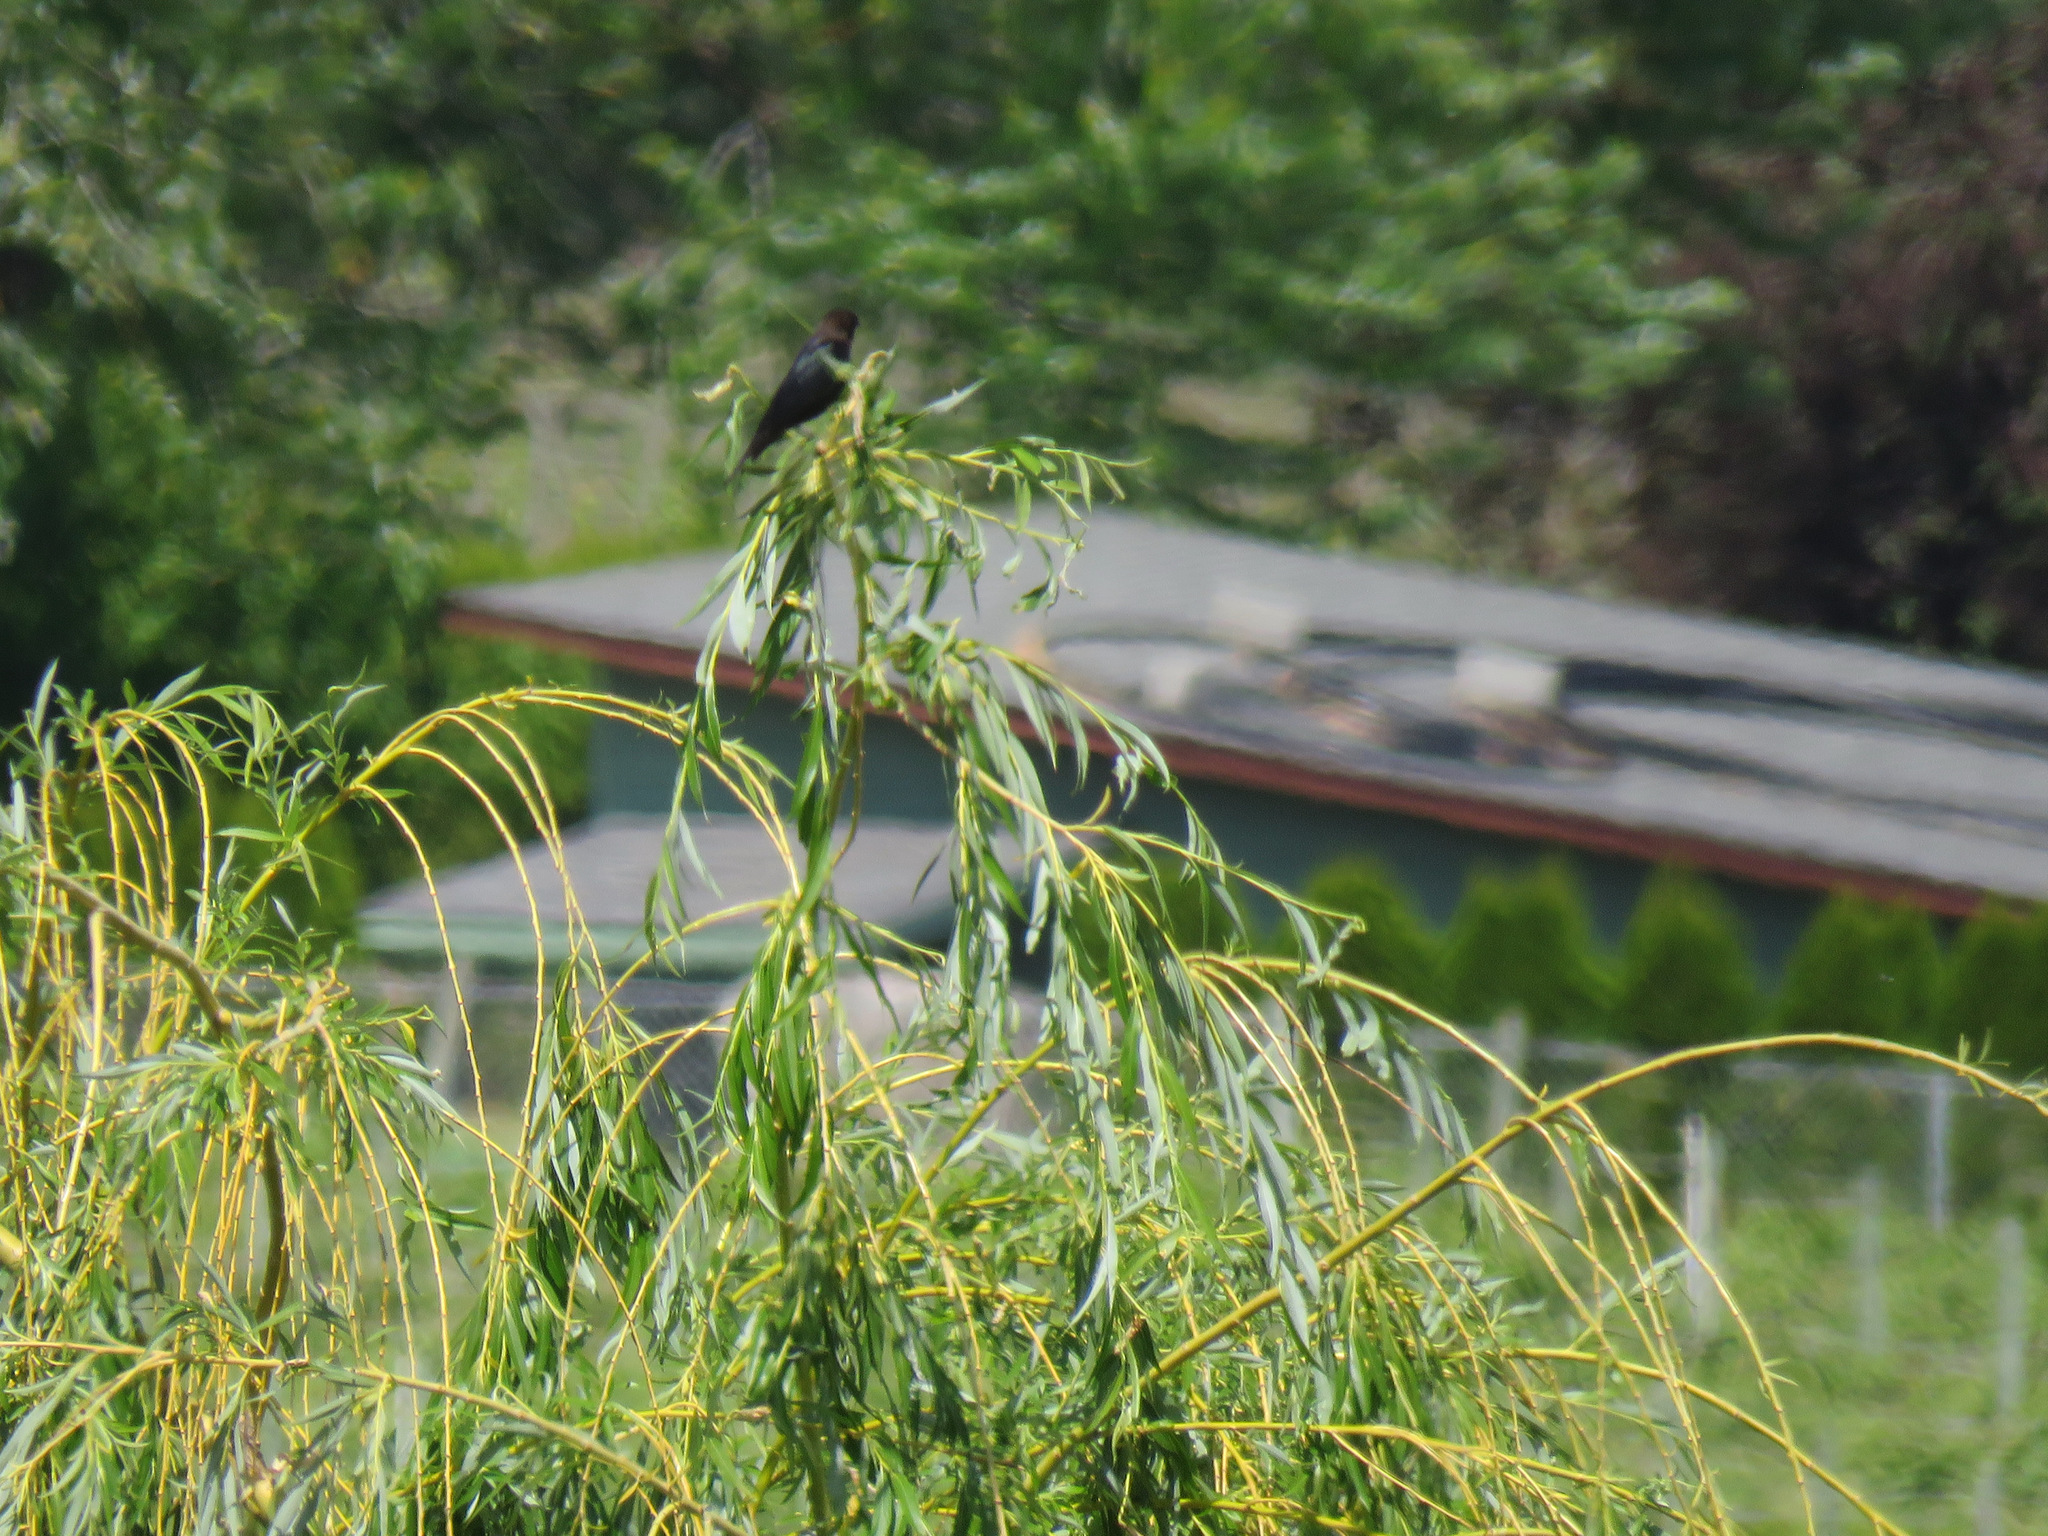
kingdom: Animalia
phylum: Chordata
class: Aves
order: Passeriformes
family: Icteridae
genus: Molothrus
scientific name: Molothrus ater
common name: Brown-headed cowbird
